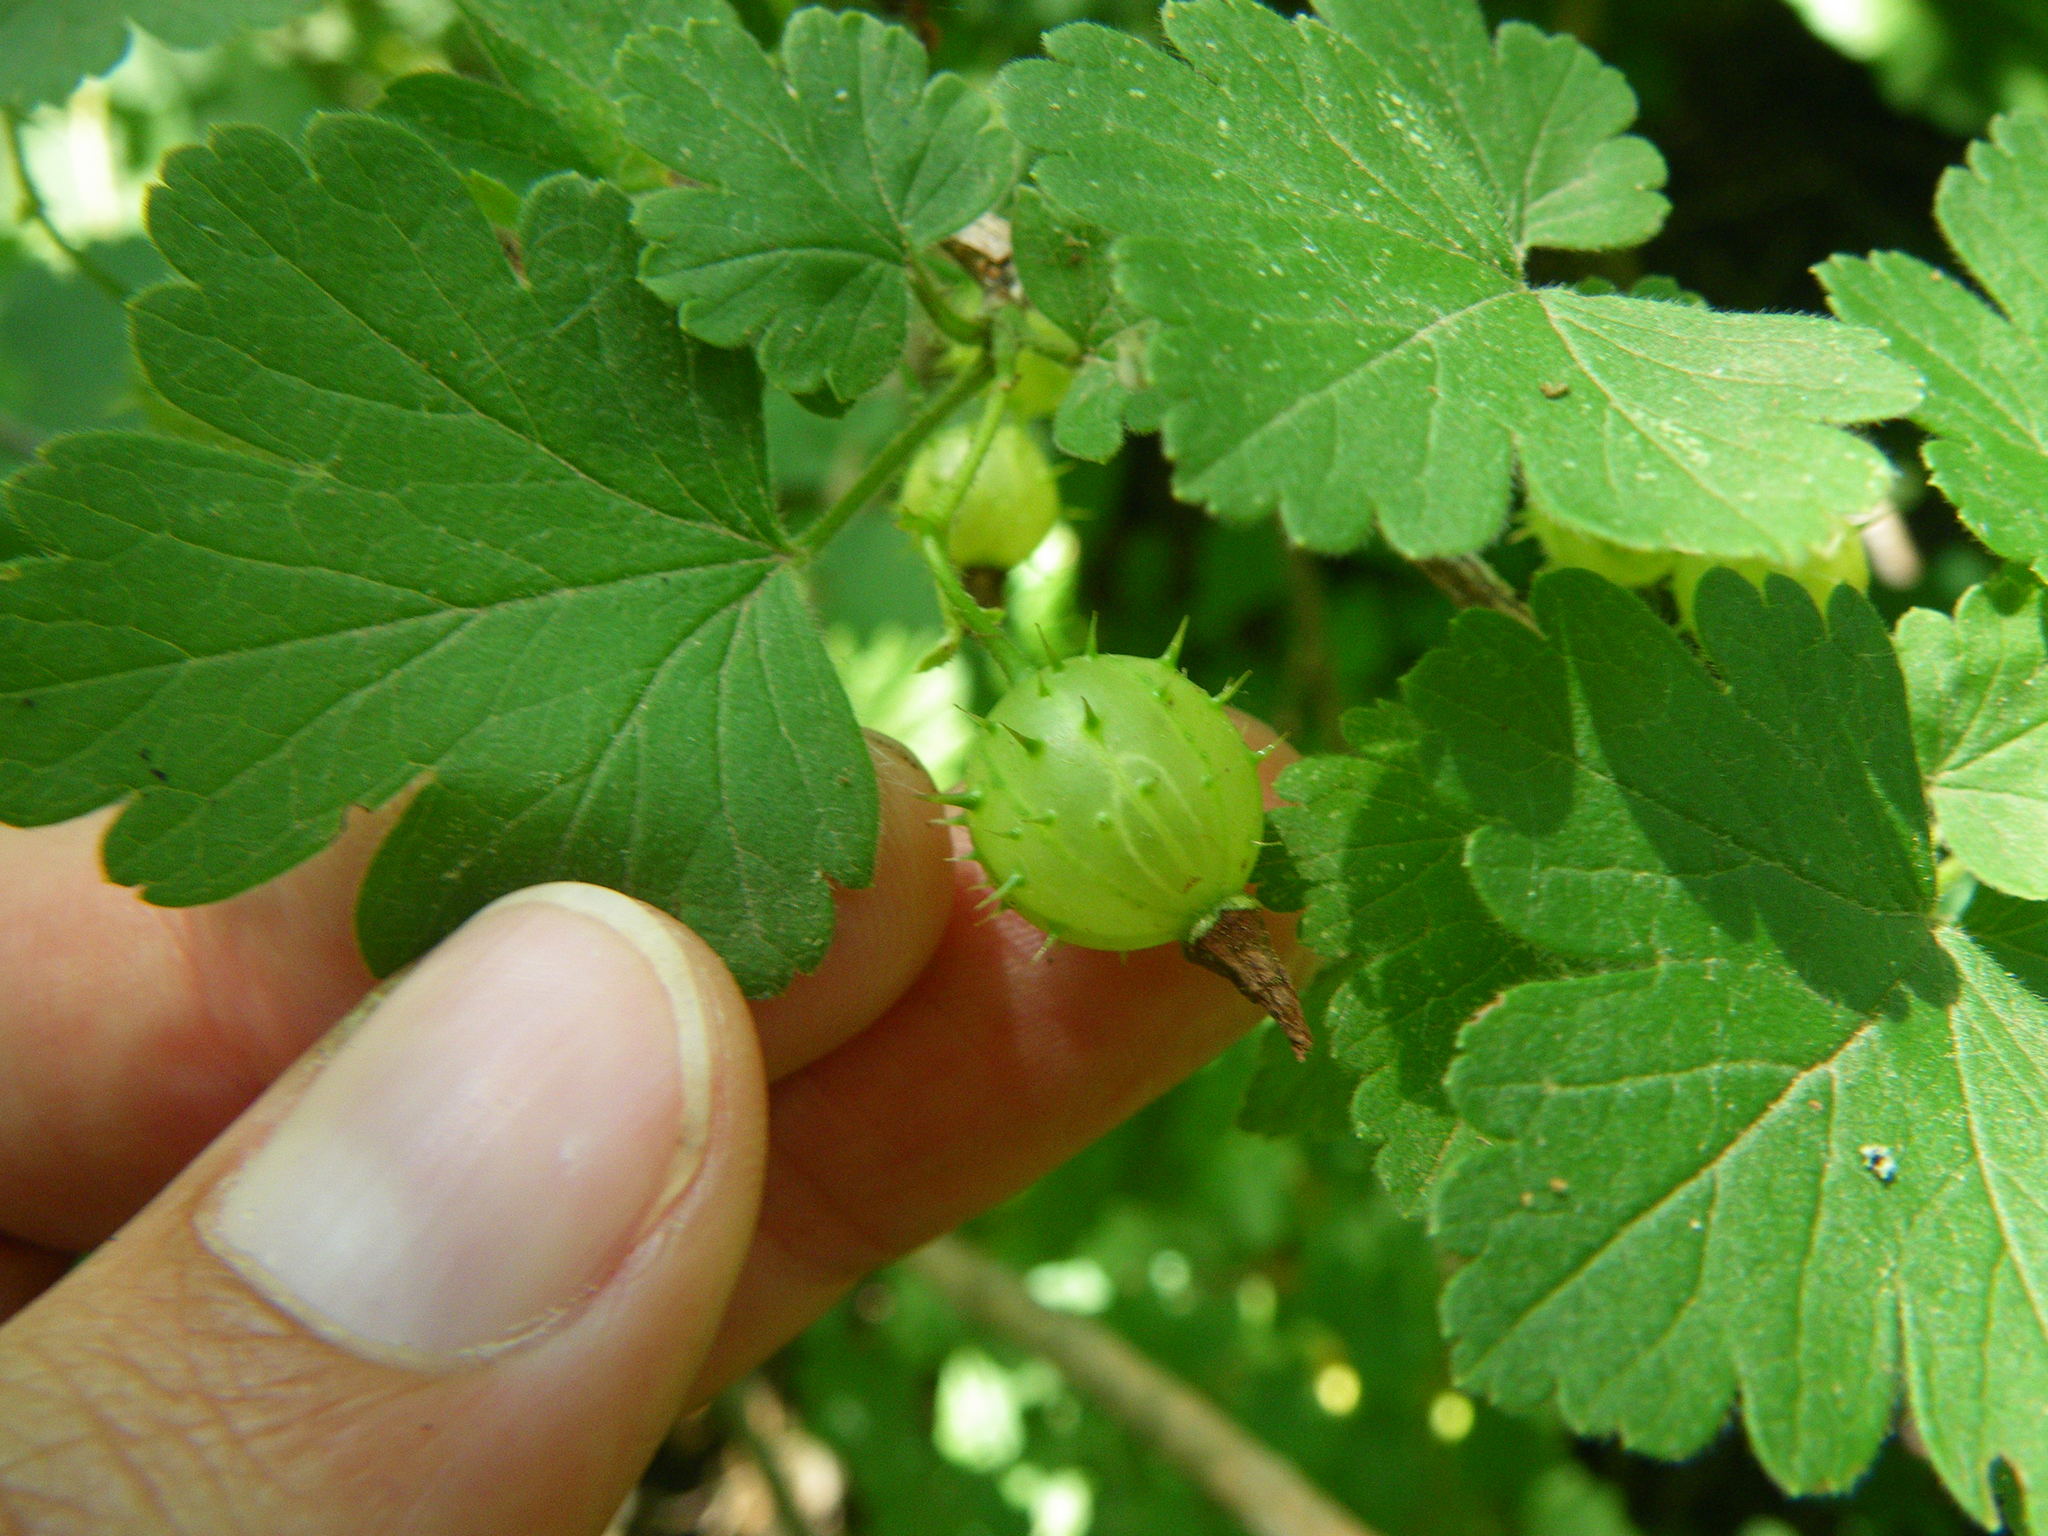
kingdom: Plantae
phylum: Tracheophyta
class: Magnoliopsida
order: Saxifragales
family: Grossulariaceae
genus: Ribes
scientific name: Ribes cynosbati
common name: American gooseberry
